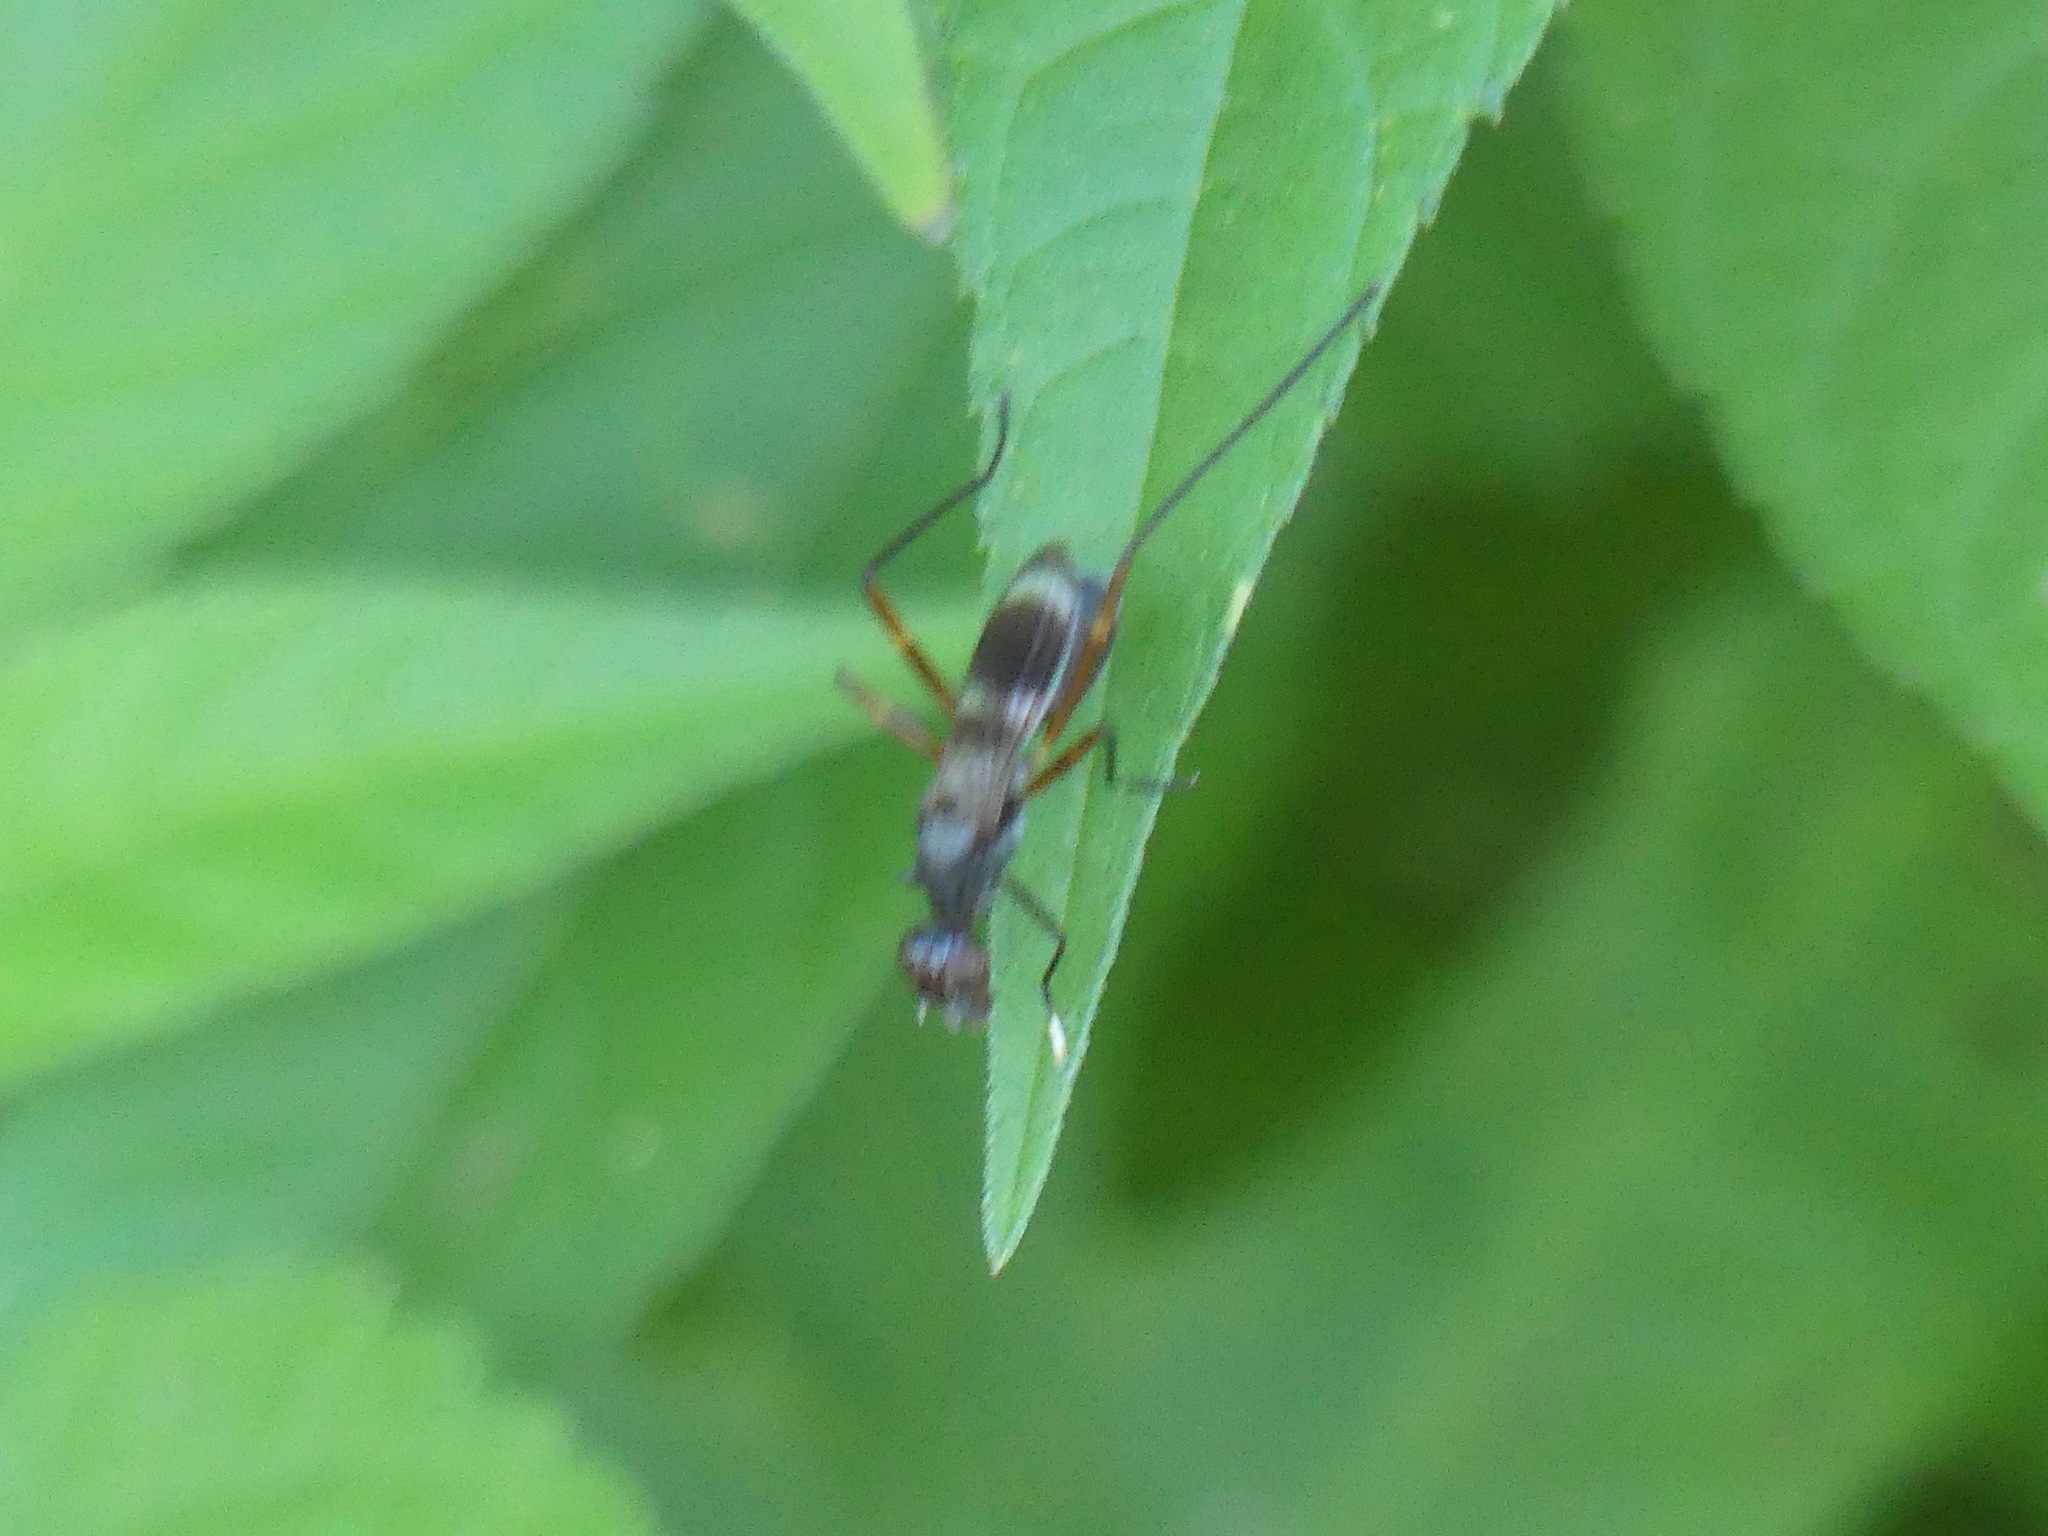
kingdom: Animalia
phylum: Arthropoda
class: Insecta
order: Diptera
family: Micropezidae
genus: Taeniaptera
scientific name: Taeniaptera trivittata
